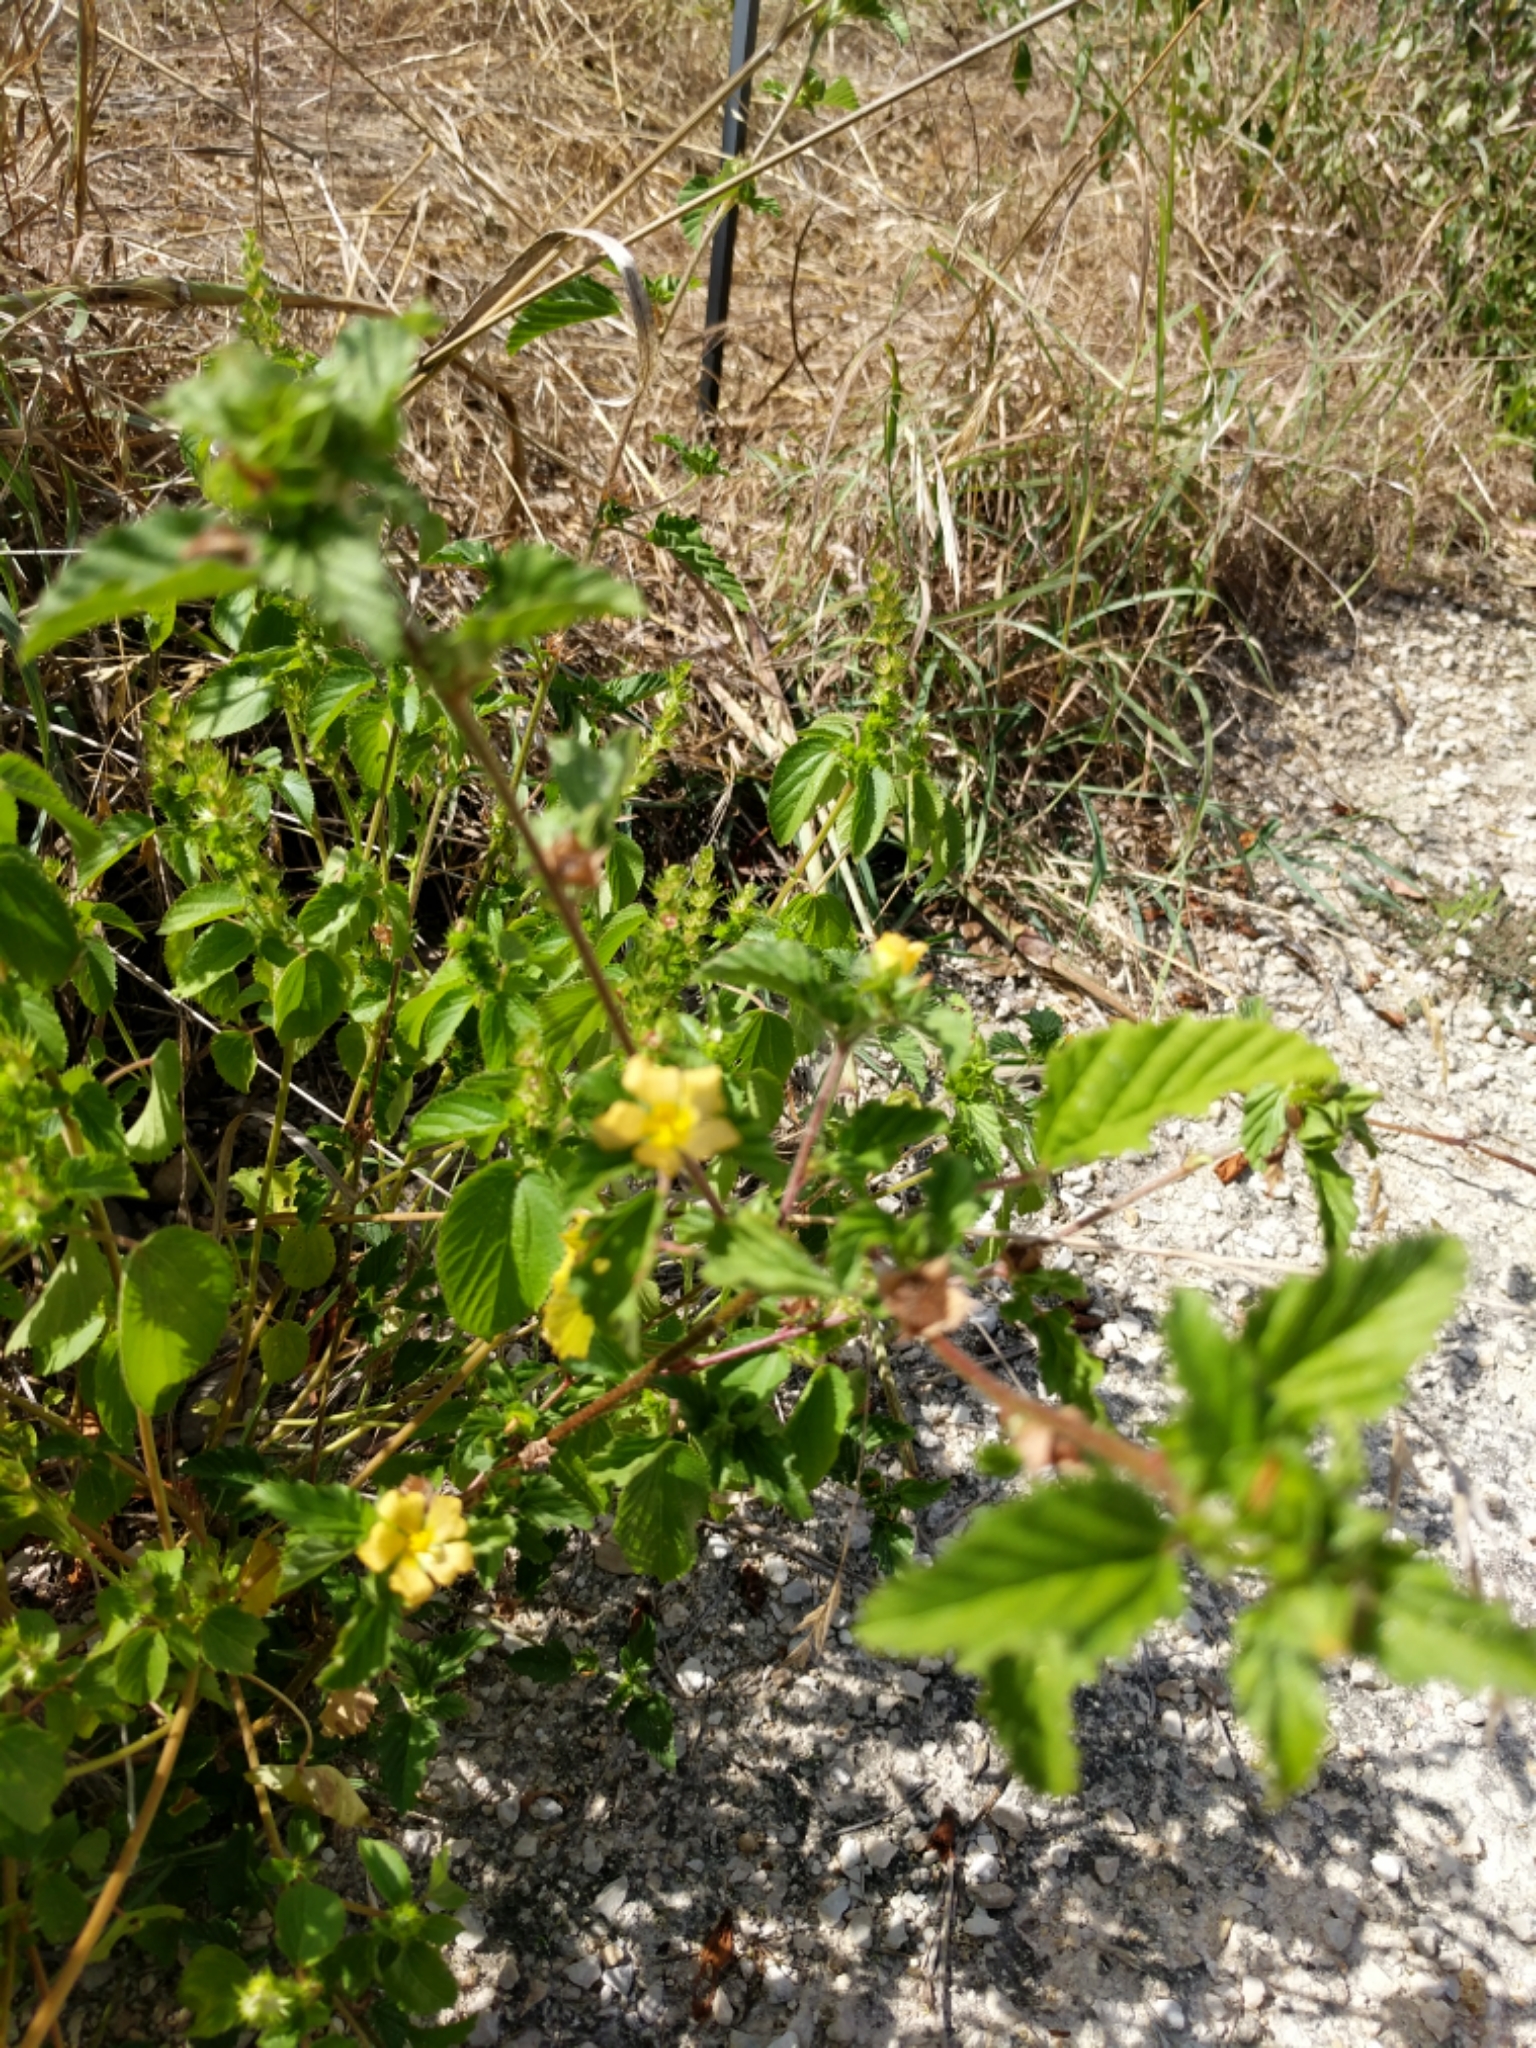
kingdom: Plantae
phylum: Tracheophyta
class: Magnoliopsida
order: Malvales
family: Malvaceae
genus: Malvastrum
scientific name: Malvastrum coromandelianum
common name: Threelobe false mallow
